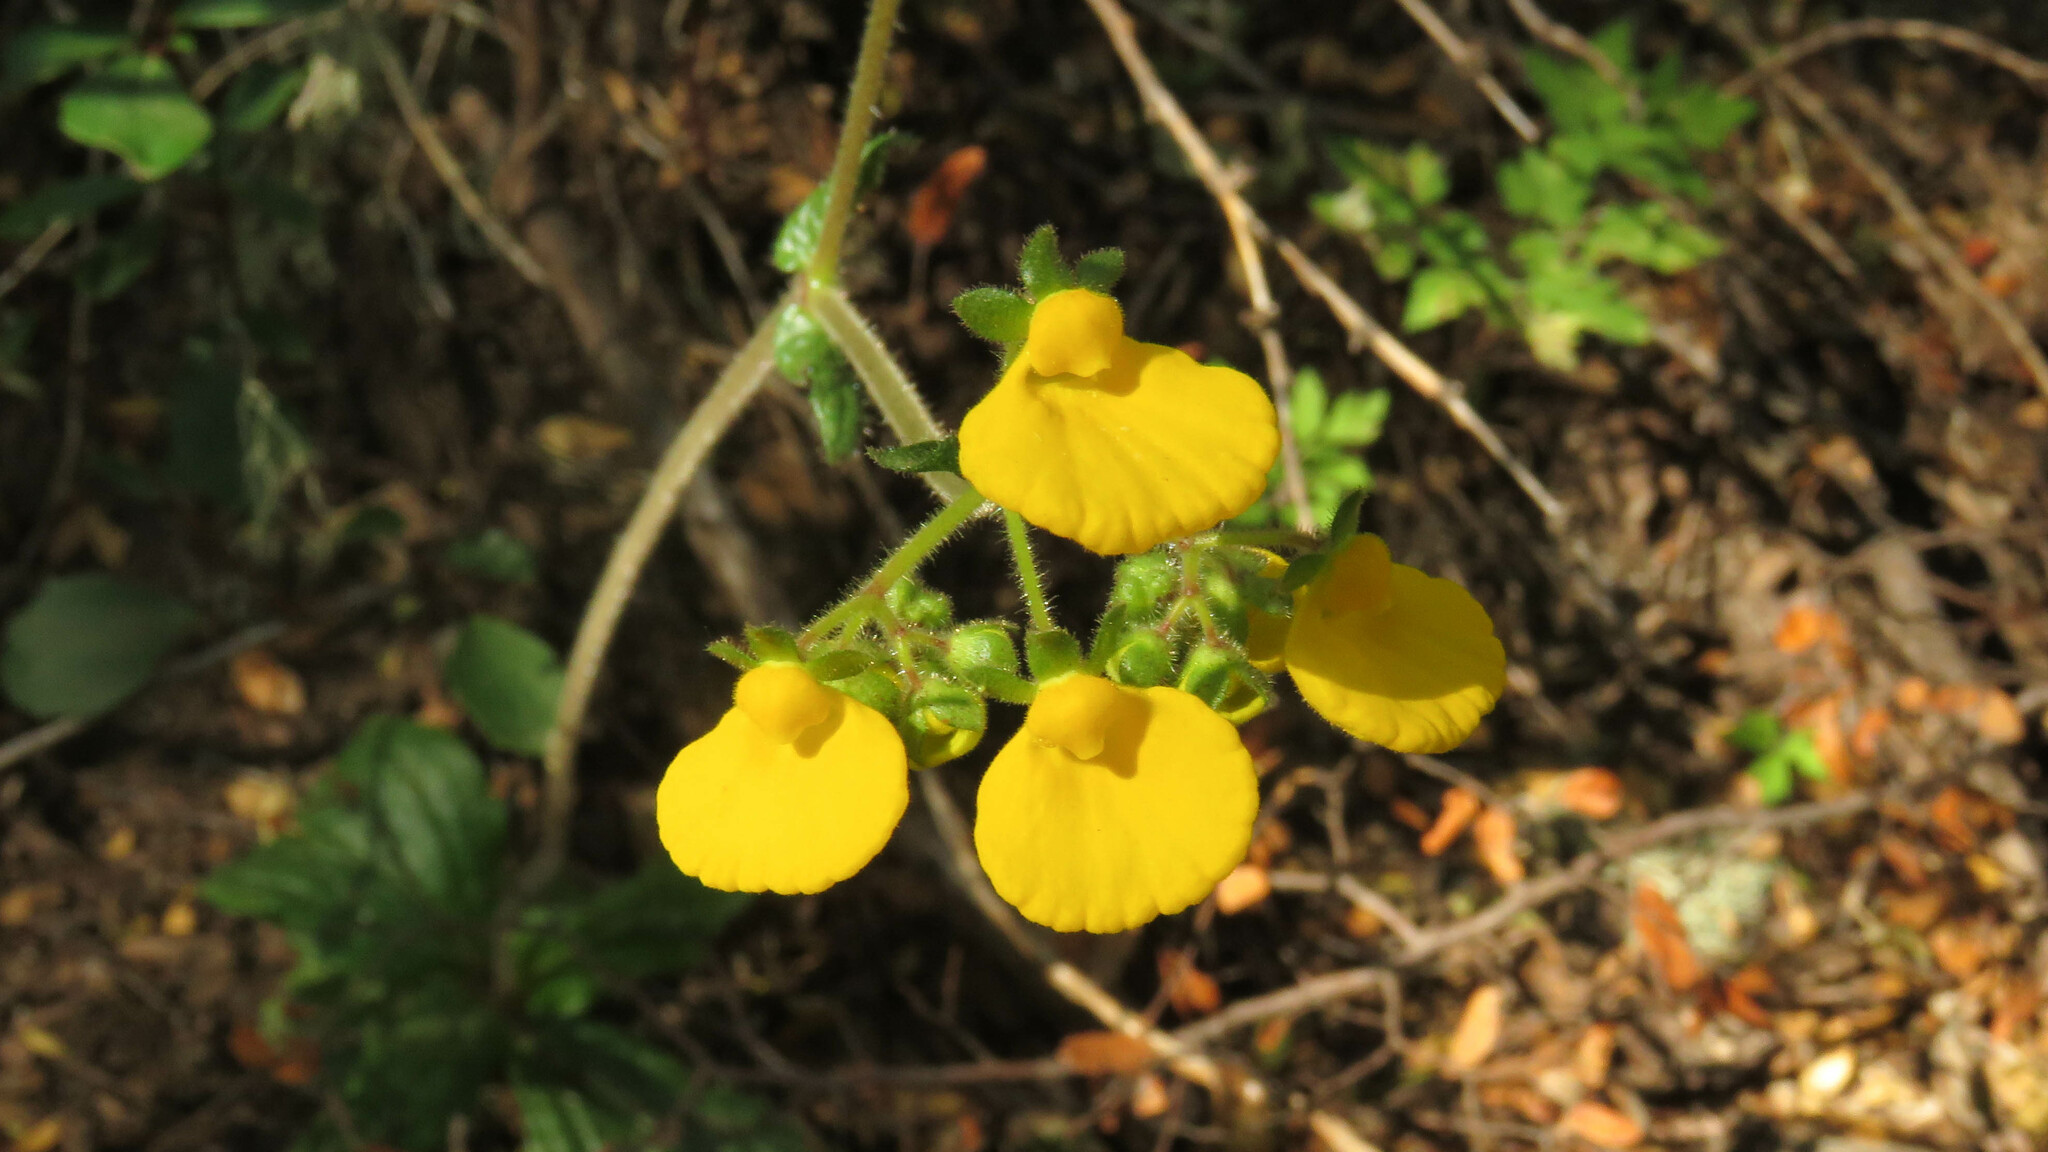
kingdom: Plantae
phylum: Tracheophyta
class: Magnoliopsida
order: Lamiales
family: Calceolariaceae
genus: Calceolaria
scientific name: Calceolaria valdiviana
